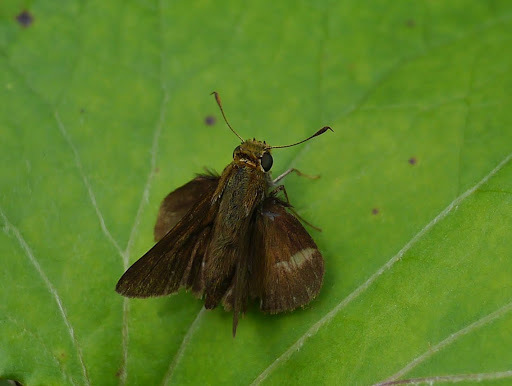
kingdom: Animalia
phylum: Arthropoda
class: Insecta
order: Lepidoptera
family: Hesperiidae
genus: Euphyes
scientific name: Euphyes vestris
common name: Dun skipper
